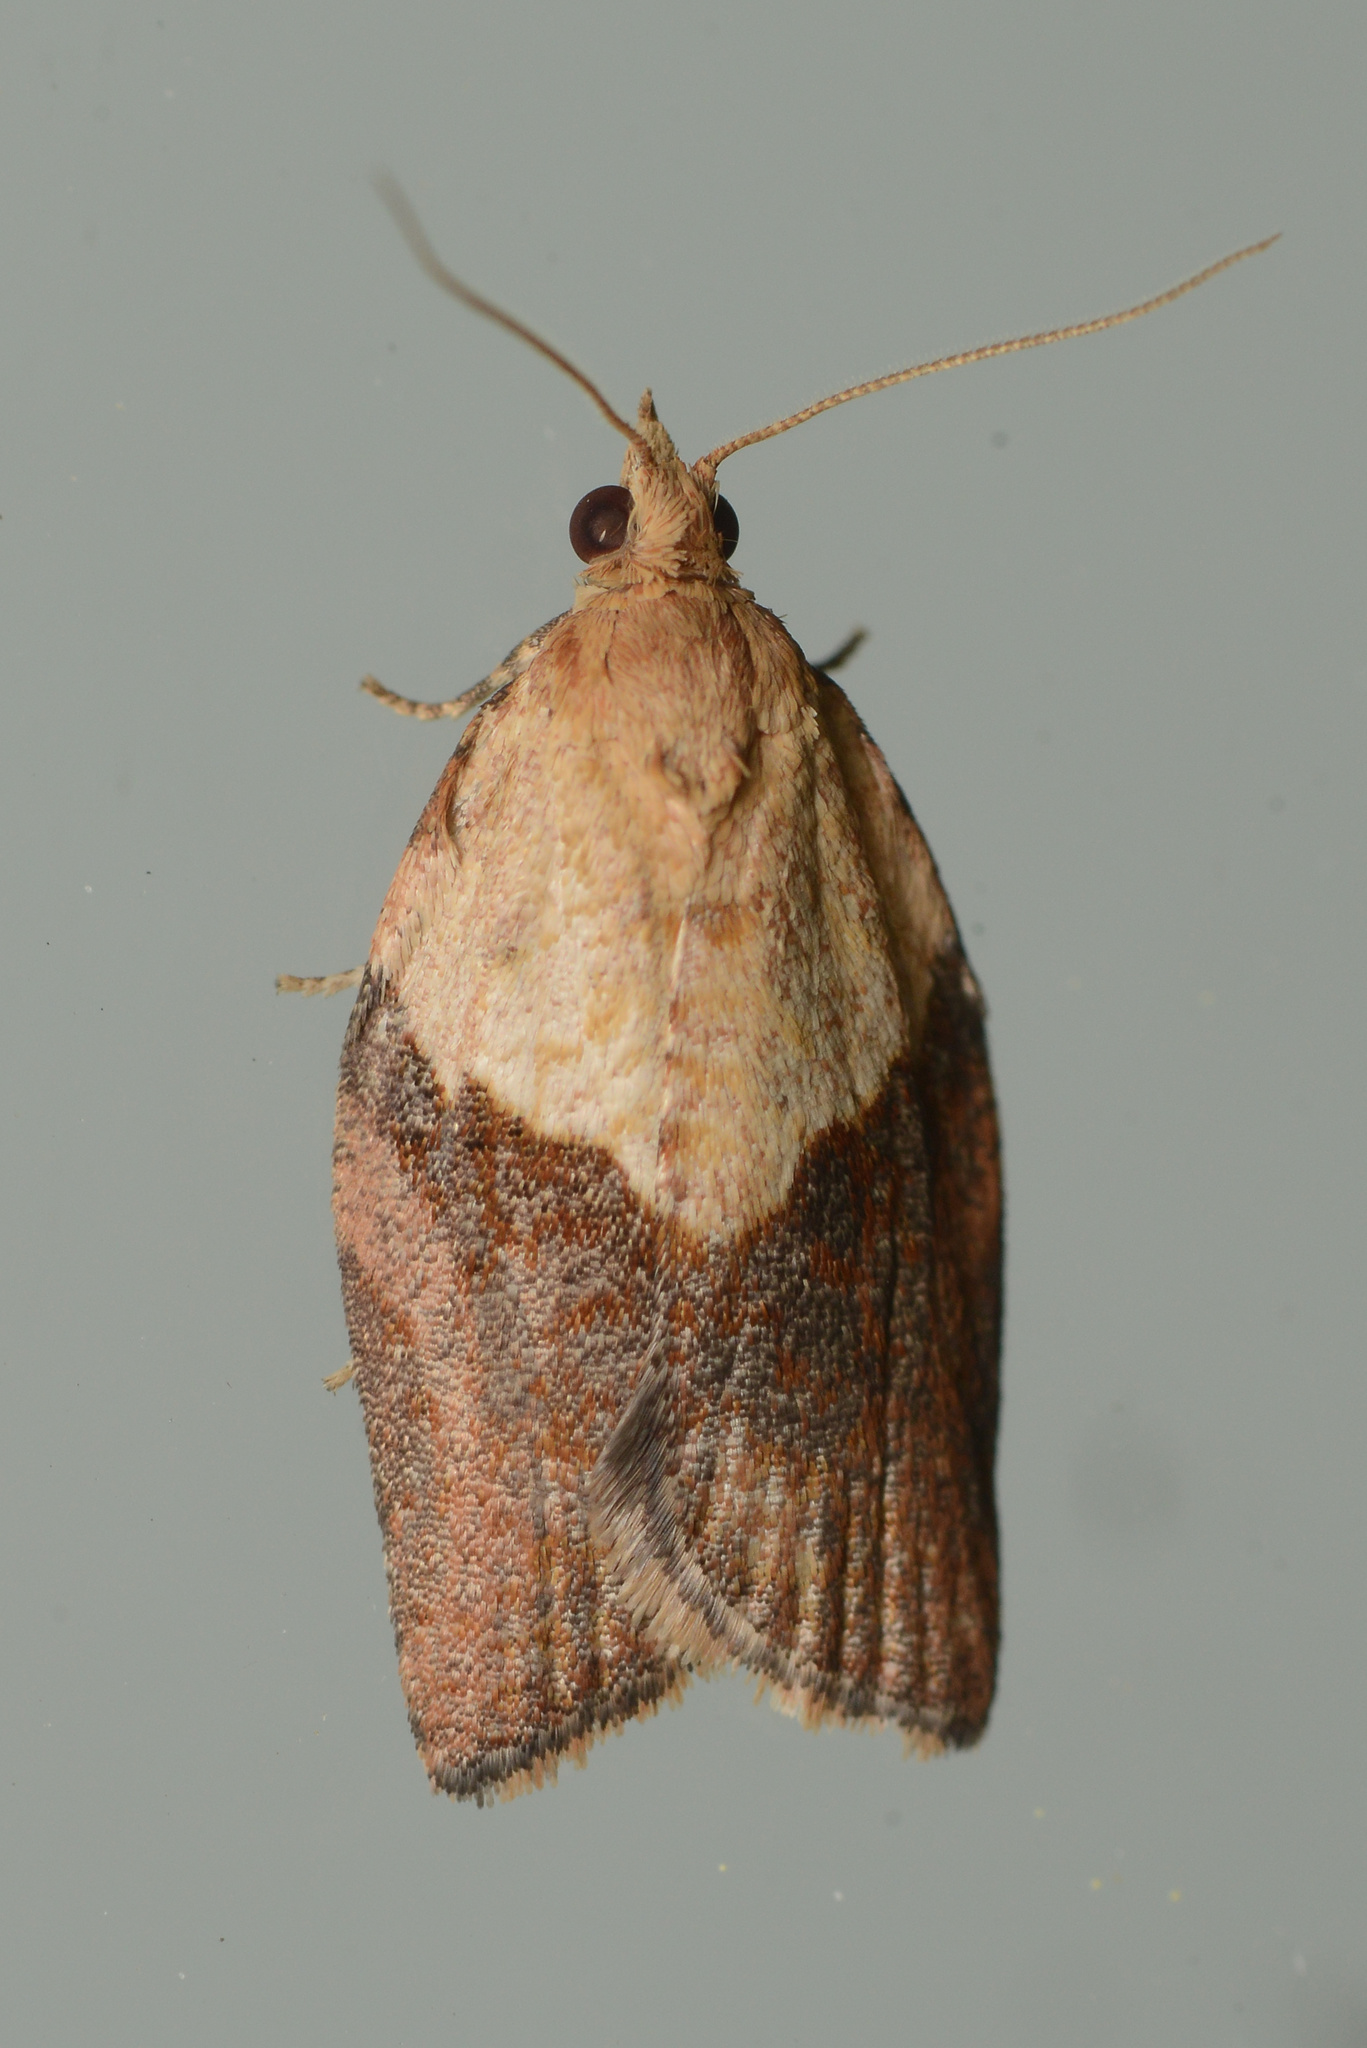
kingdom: Animalia
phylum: Arthropoda
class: Insecta
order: Lepidoptera
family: Tortricidae
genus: Epiphyas
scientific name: Epiphyas postvittana
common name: Light brown apple moth
